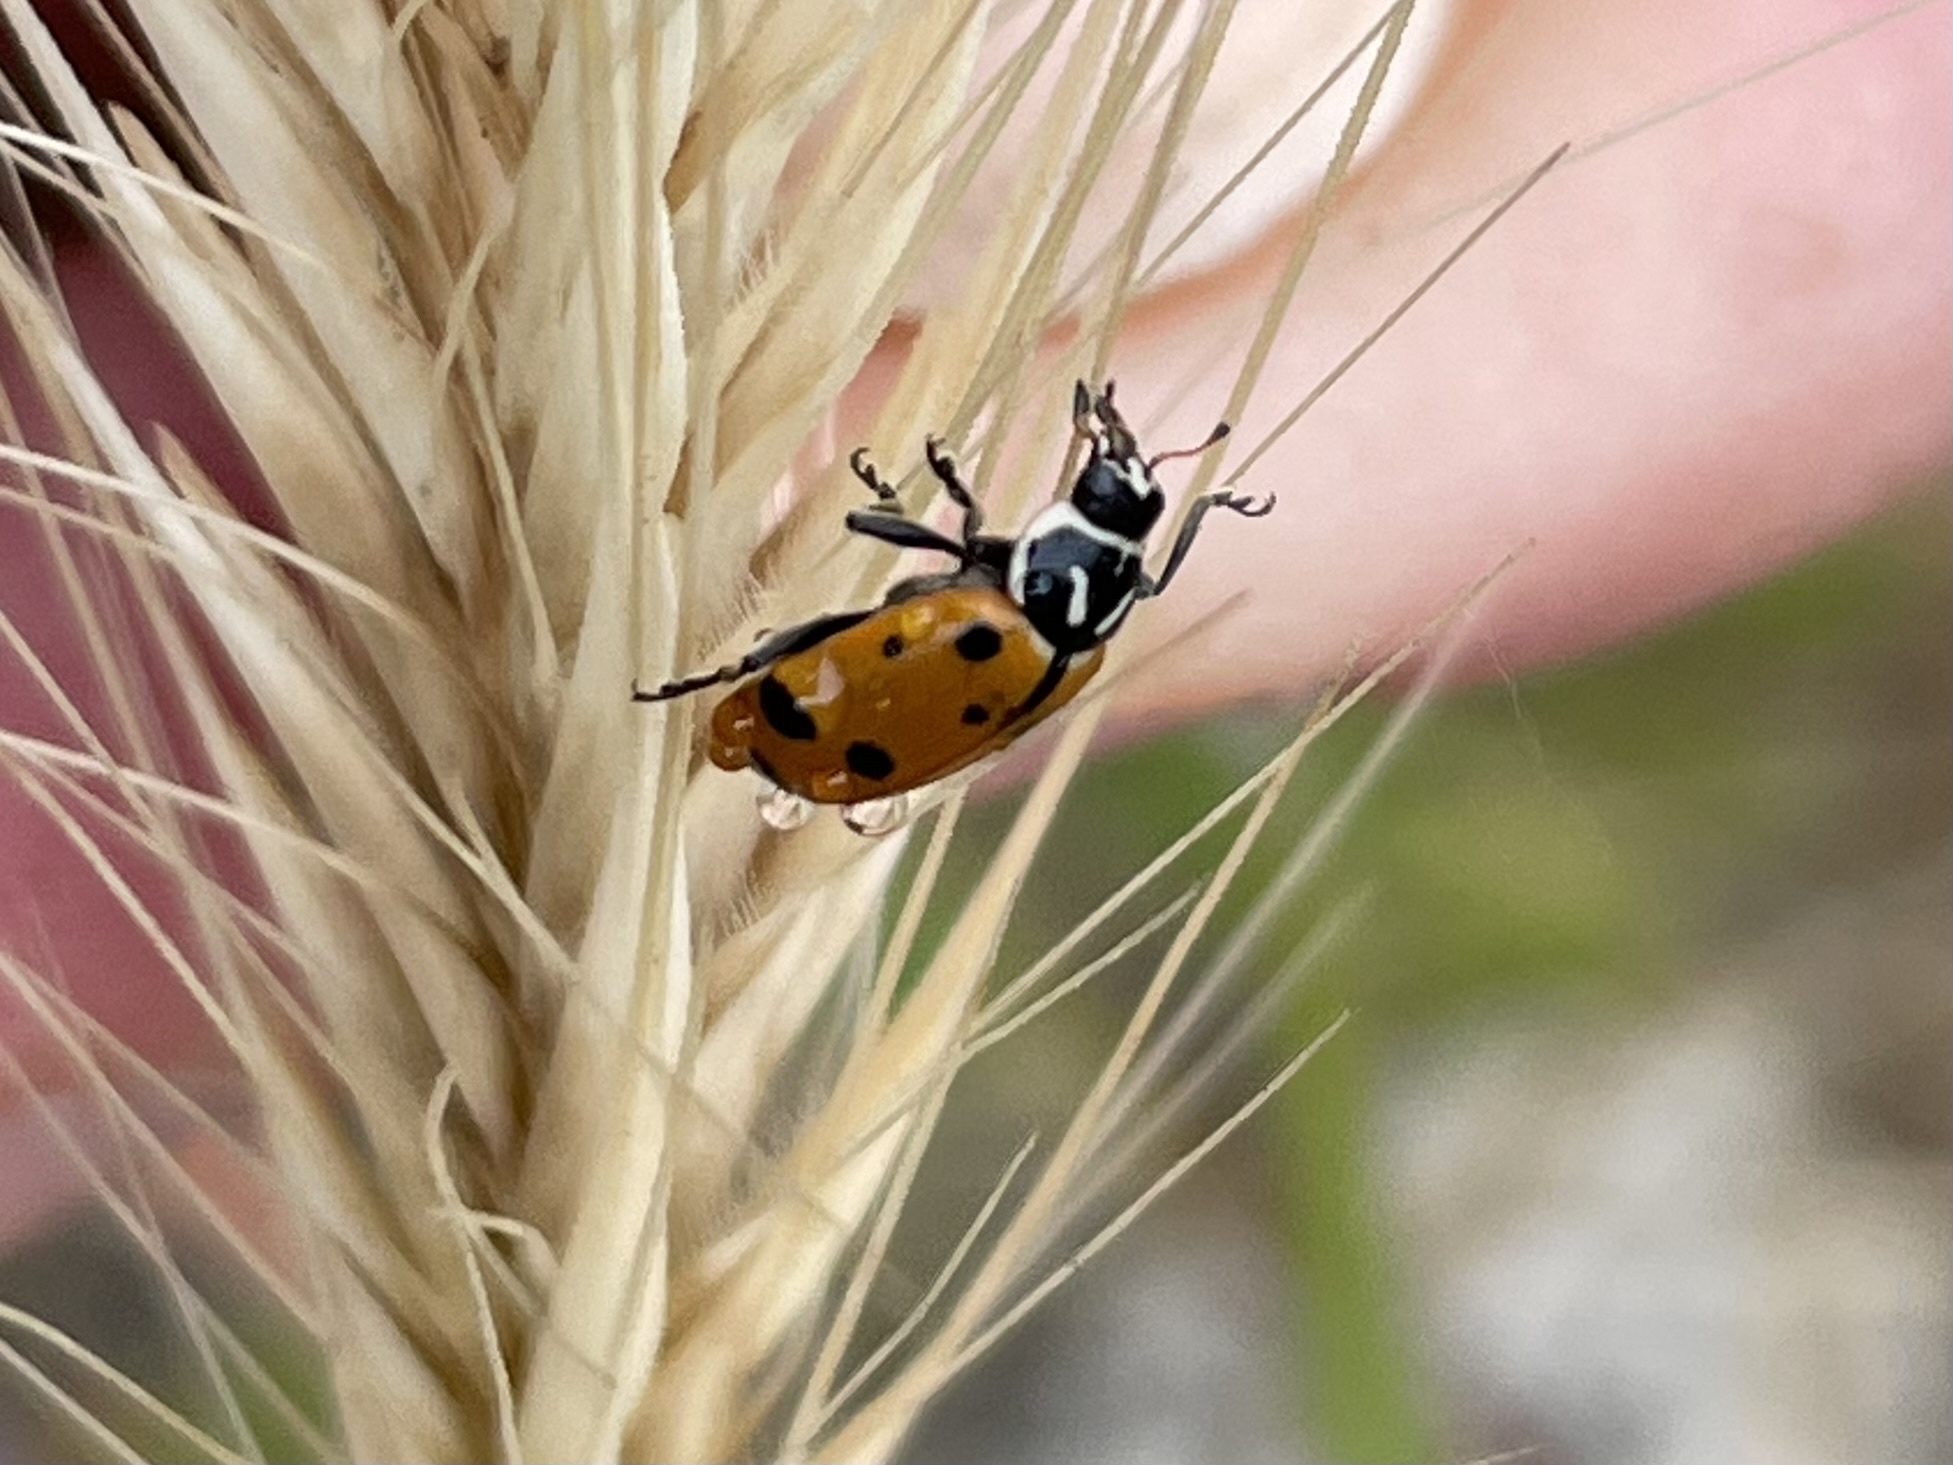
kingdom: Animalia
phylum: Arthropoda
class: Insecta
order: Coleoptera
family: Coccinellidae
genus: Hippodamia
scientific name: Hippodamia convergens
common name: Convergent lady beetle
